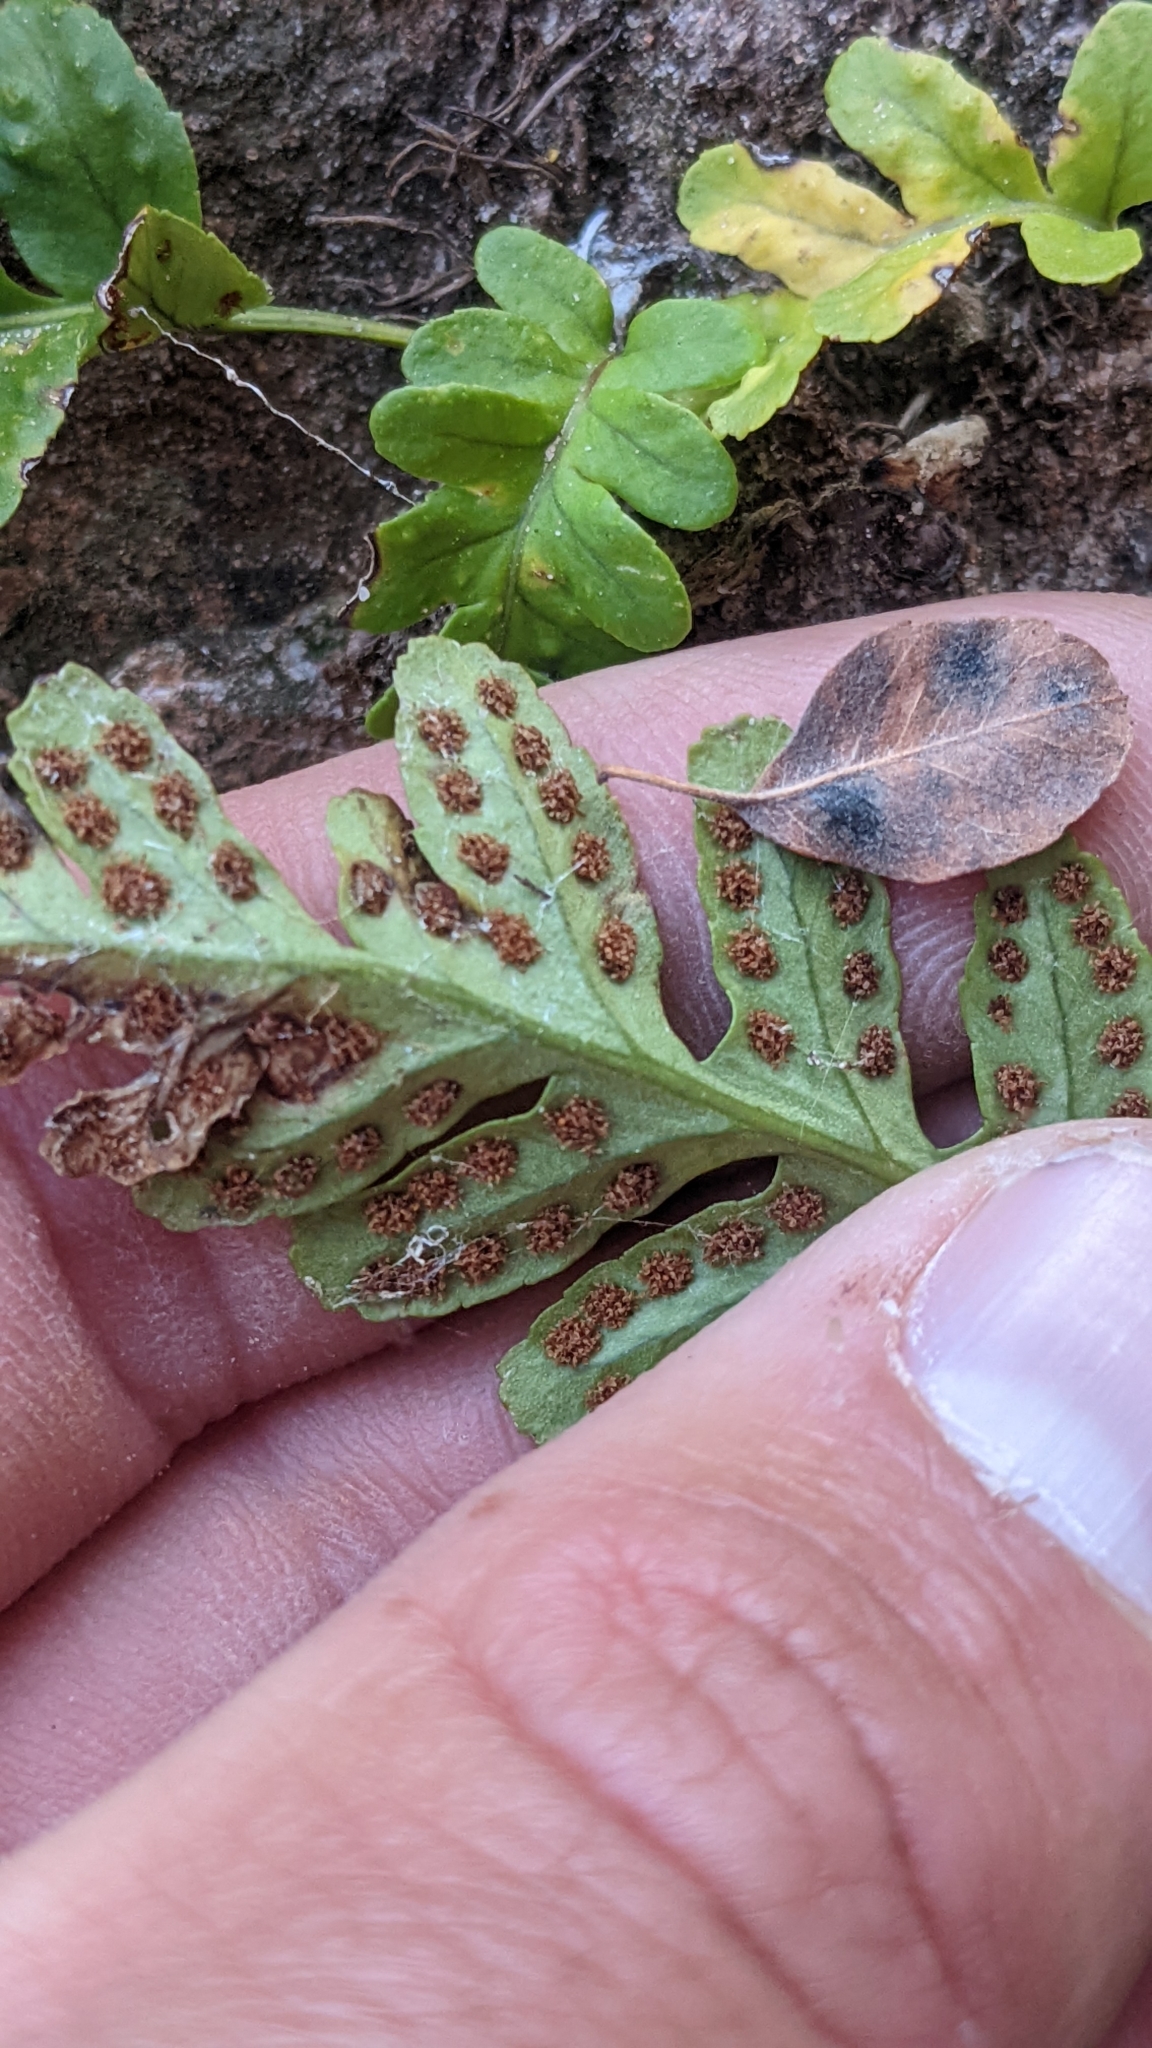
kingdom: Plantae
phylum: Tracheophyta
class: Polypodiopsida
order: Polypodiales
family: Polypodiaceae
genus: Polypodium
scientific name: Polypodium hesperium
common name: Western polypody
